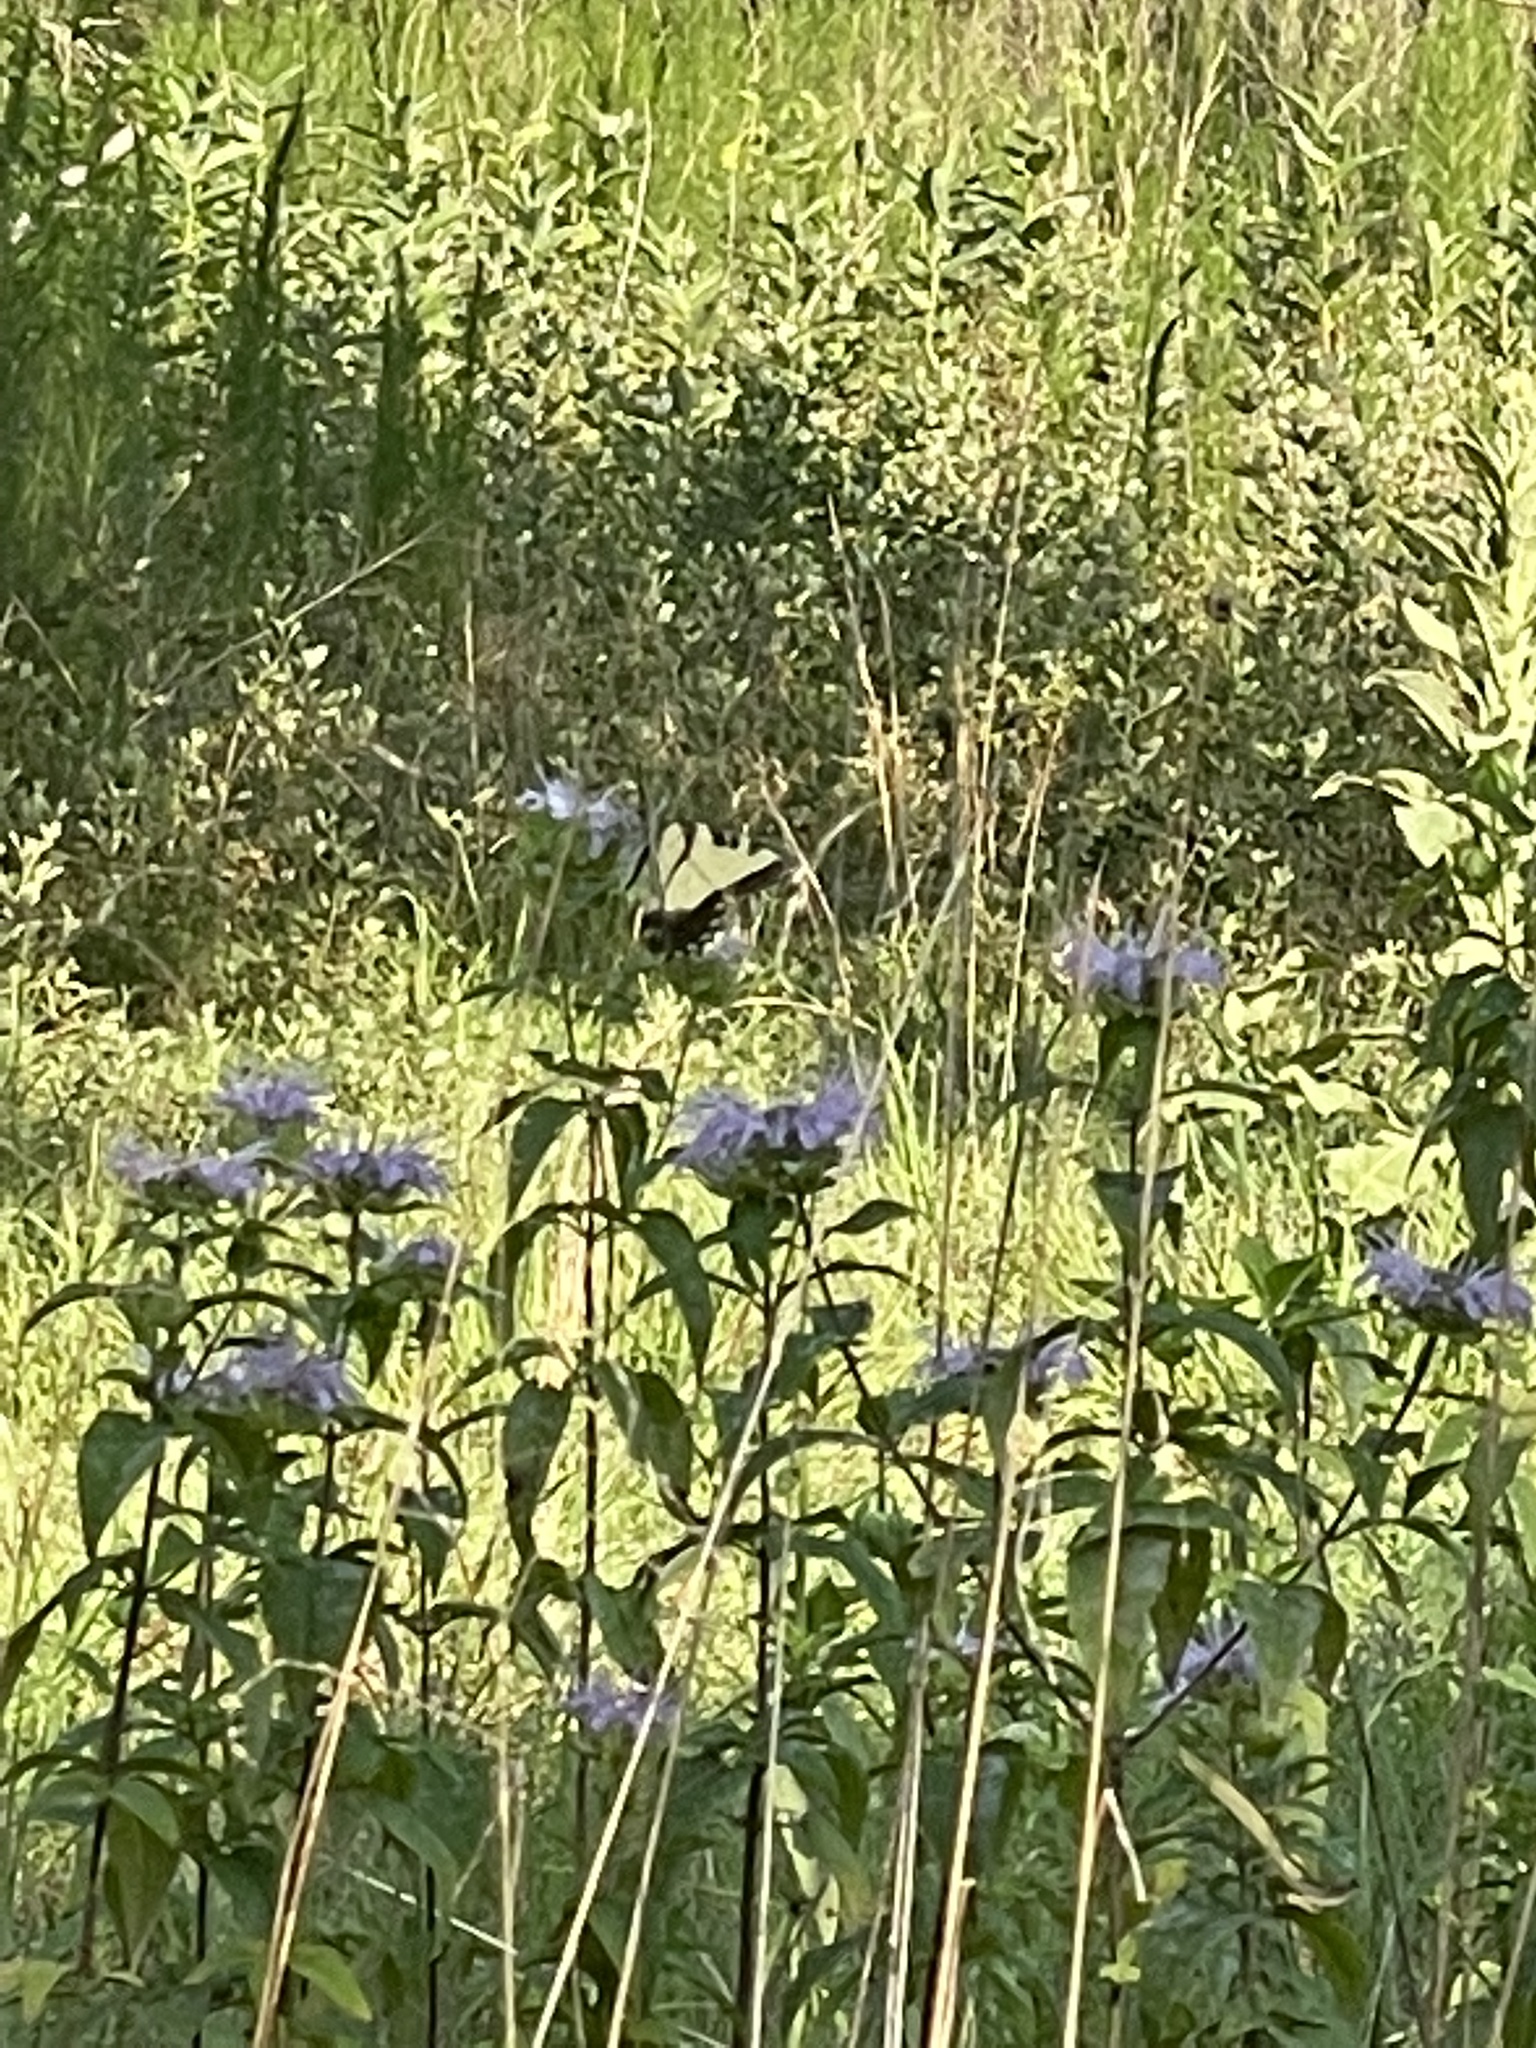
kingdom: Animalia
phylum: Arthropoda
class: Insecta
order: Lepidoptera
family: Papilionidae
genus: Papilio
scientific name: Papilio glaucus
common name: Tiger swallowtail
